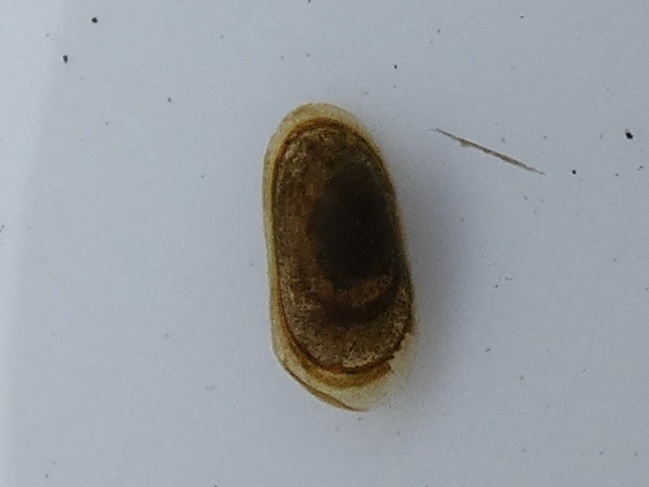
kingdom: Animalia
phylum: Mollusca
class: Gastropoda
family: Acroloxidae
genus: Acroloxus
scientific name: Acroloxus lacustris
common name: Lake limpet
